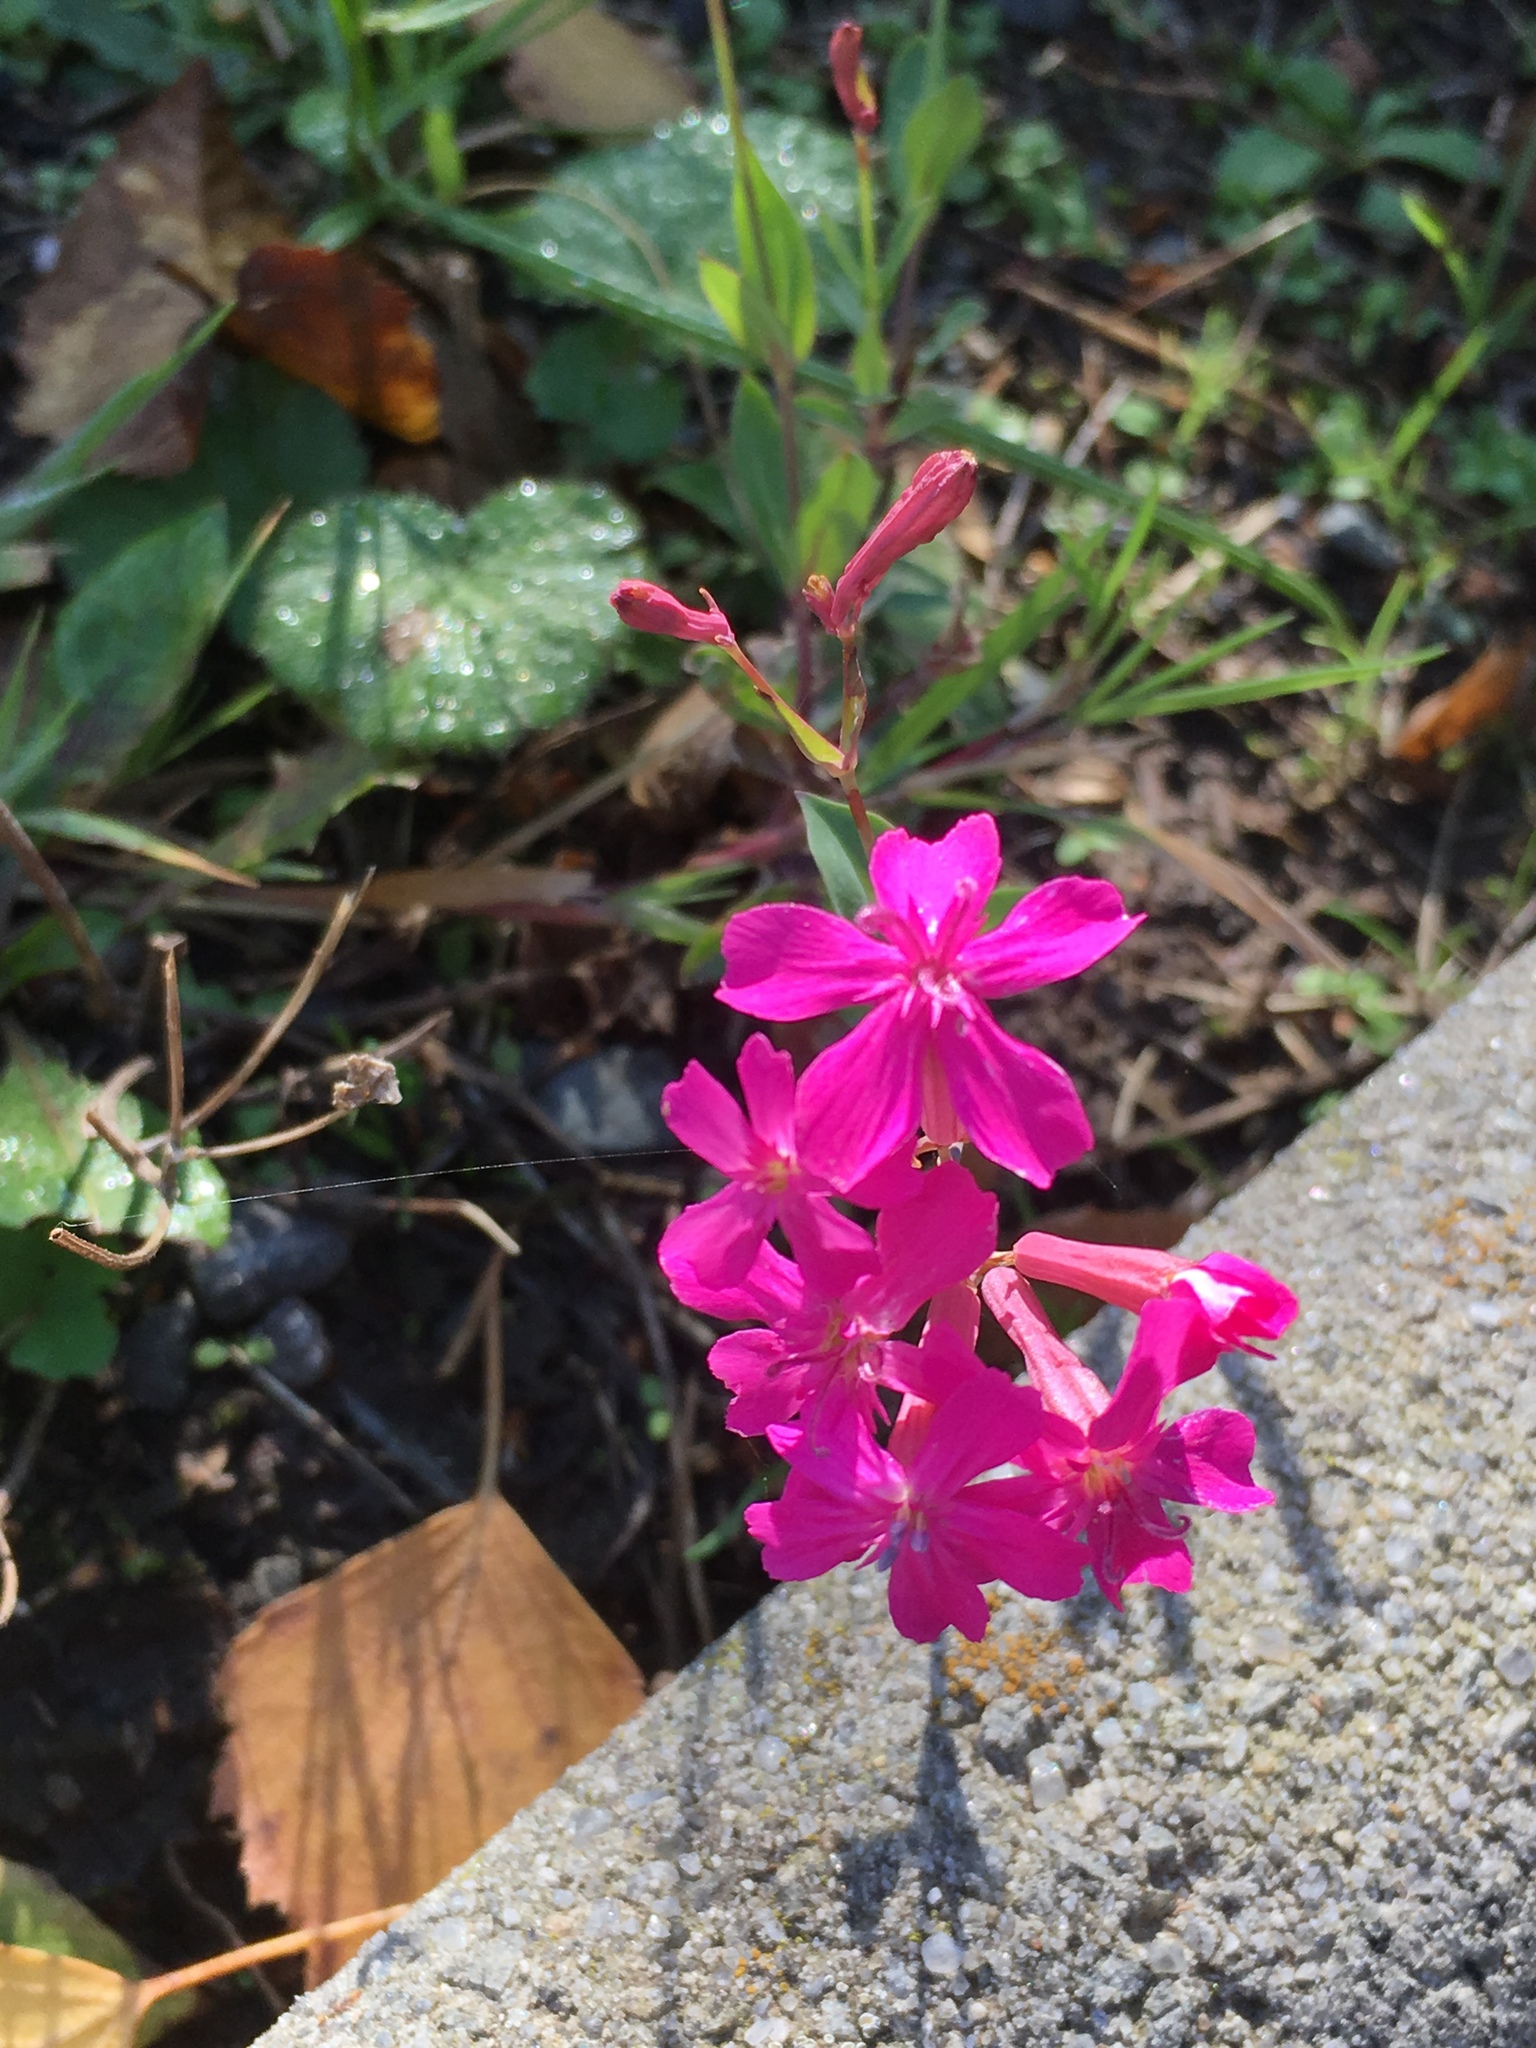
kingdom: Plantae
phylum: Tracheophyta
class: Magnoliopsida
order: Caryophyllales
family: Caryophyllaceae
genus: Atocion
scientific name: Atocion armeria
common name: Sweet william catchfly
